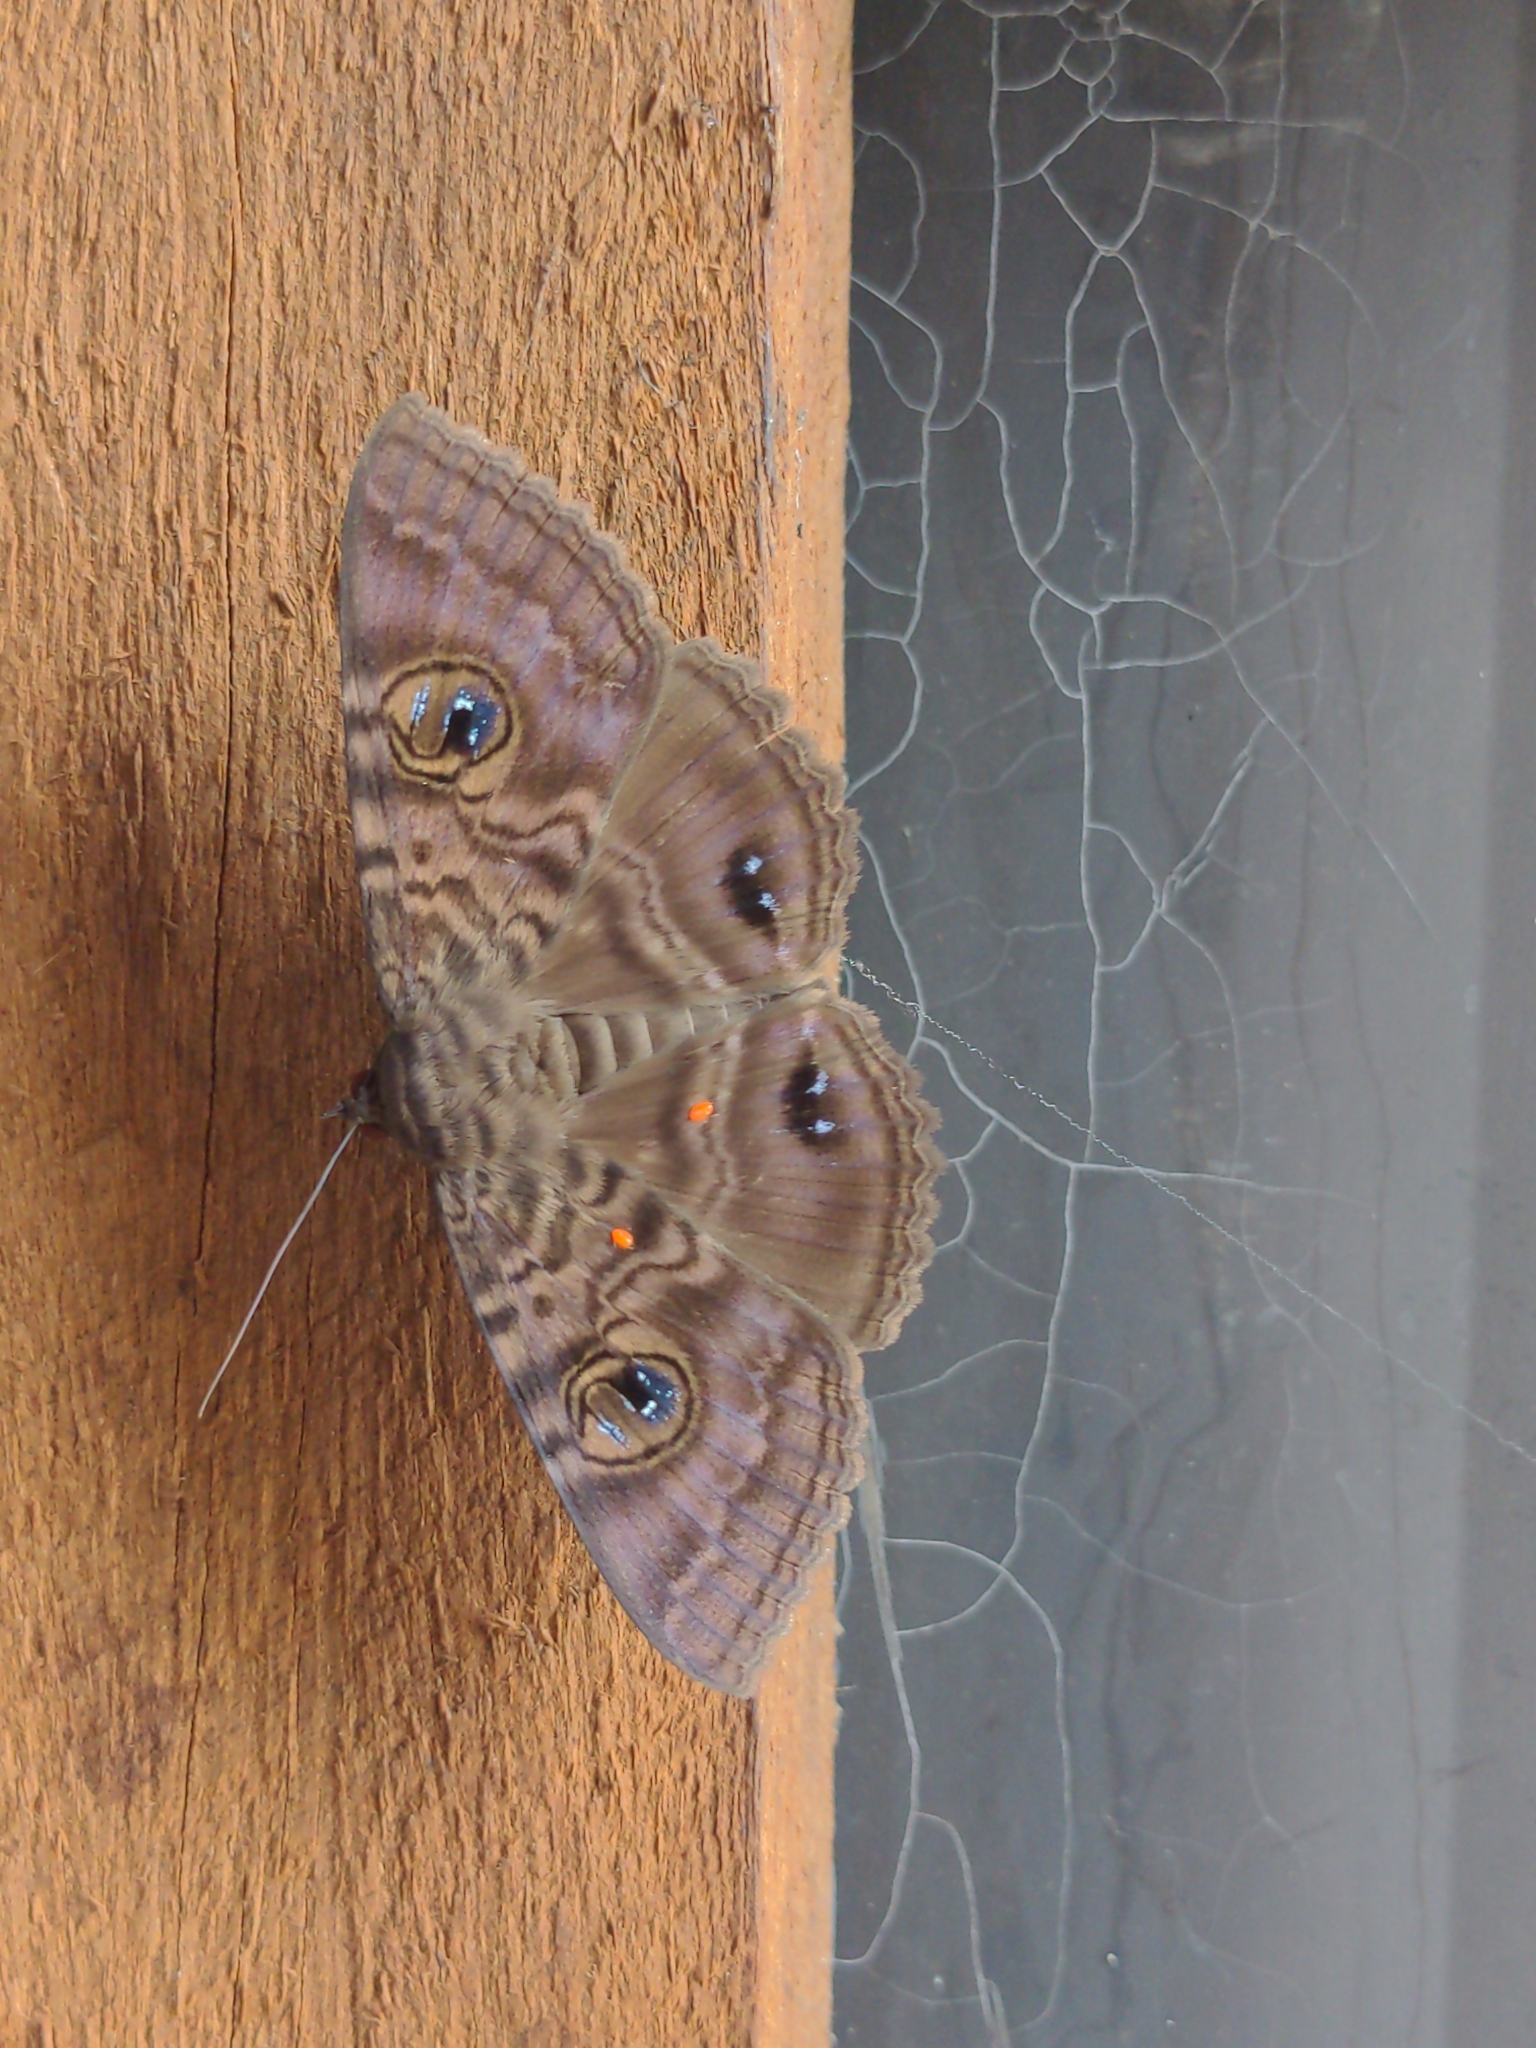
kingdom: Animalia
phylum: Arthropoda
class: Insecta
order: Lepidoptera
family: Erebidae
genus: Speiredonia
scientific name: Speiredonia spectans
